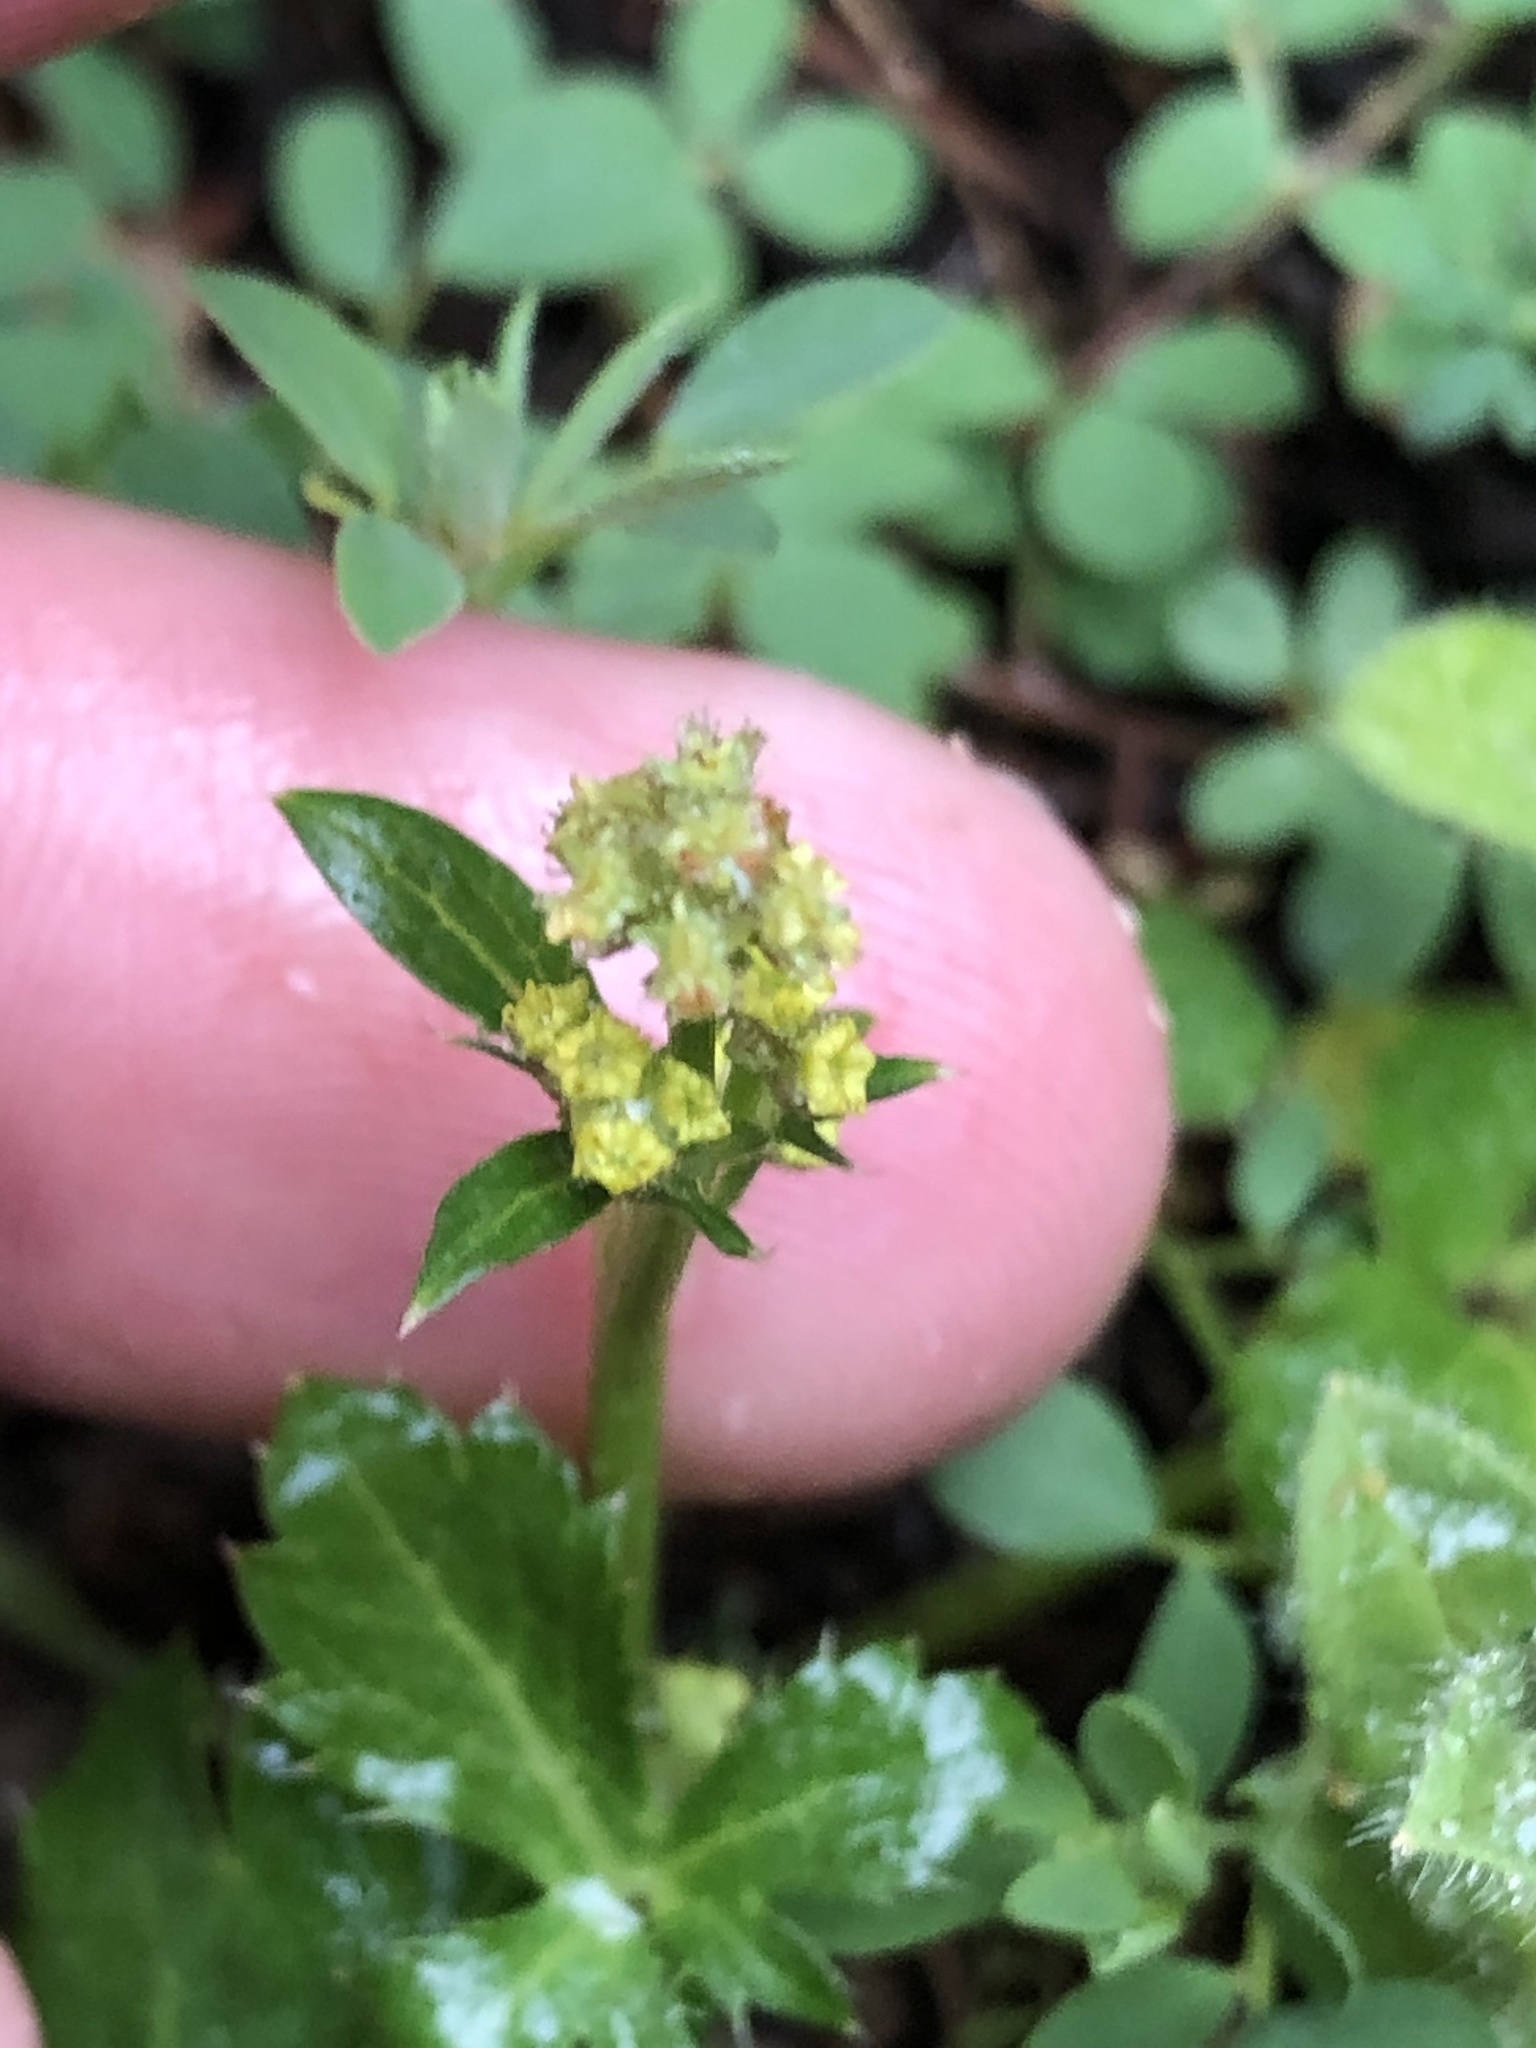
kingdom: Plantae
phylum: Tracheophyta
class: Magnoliopsida
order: Apiales
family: Apiaceae
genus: Sanicula
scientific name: Sanicula crassicaulis
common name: Western snakeroot
